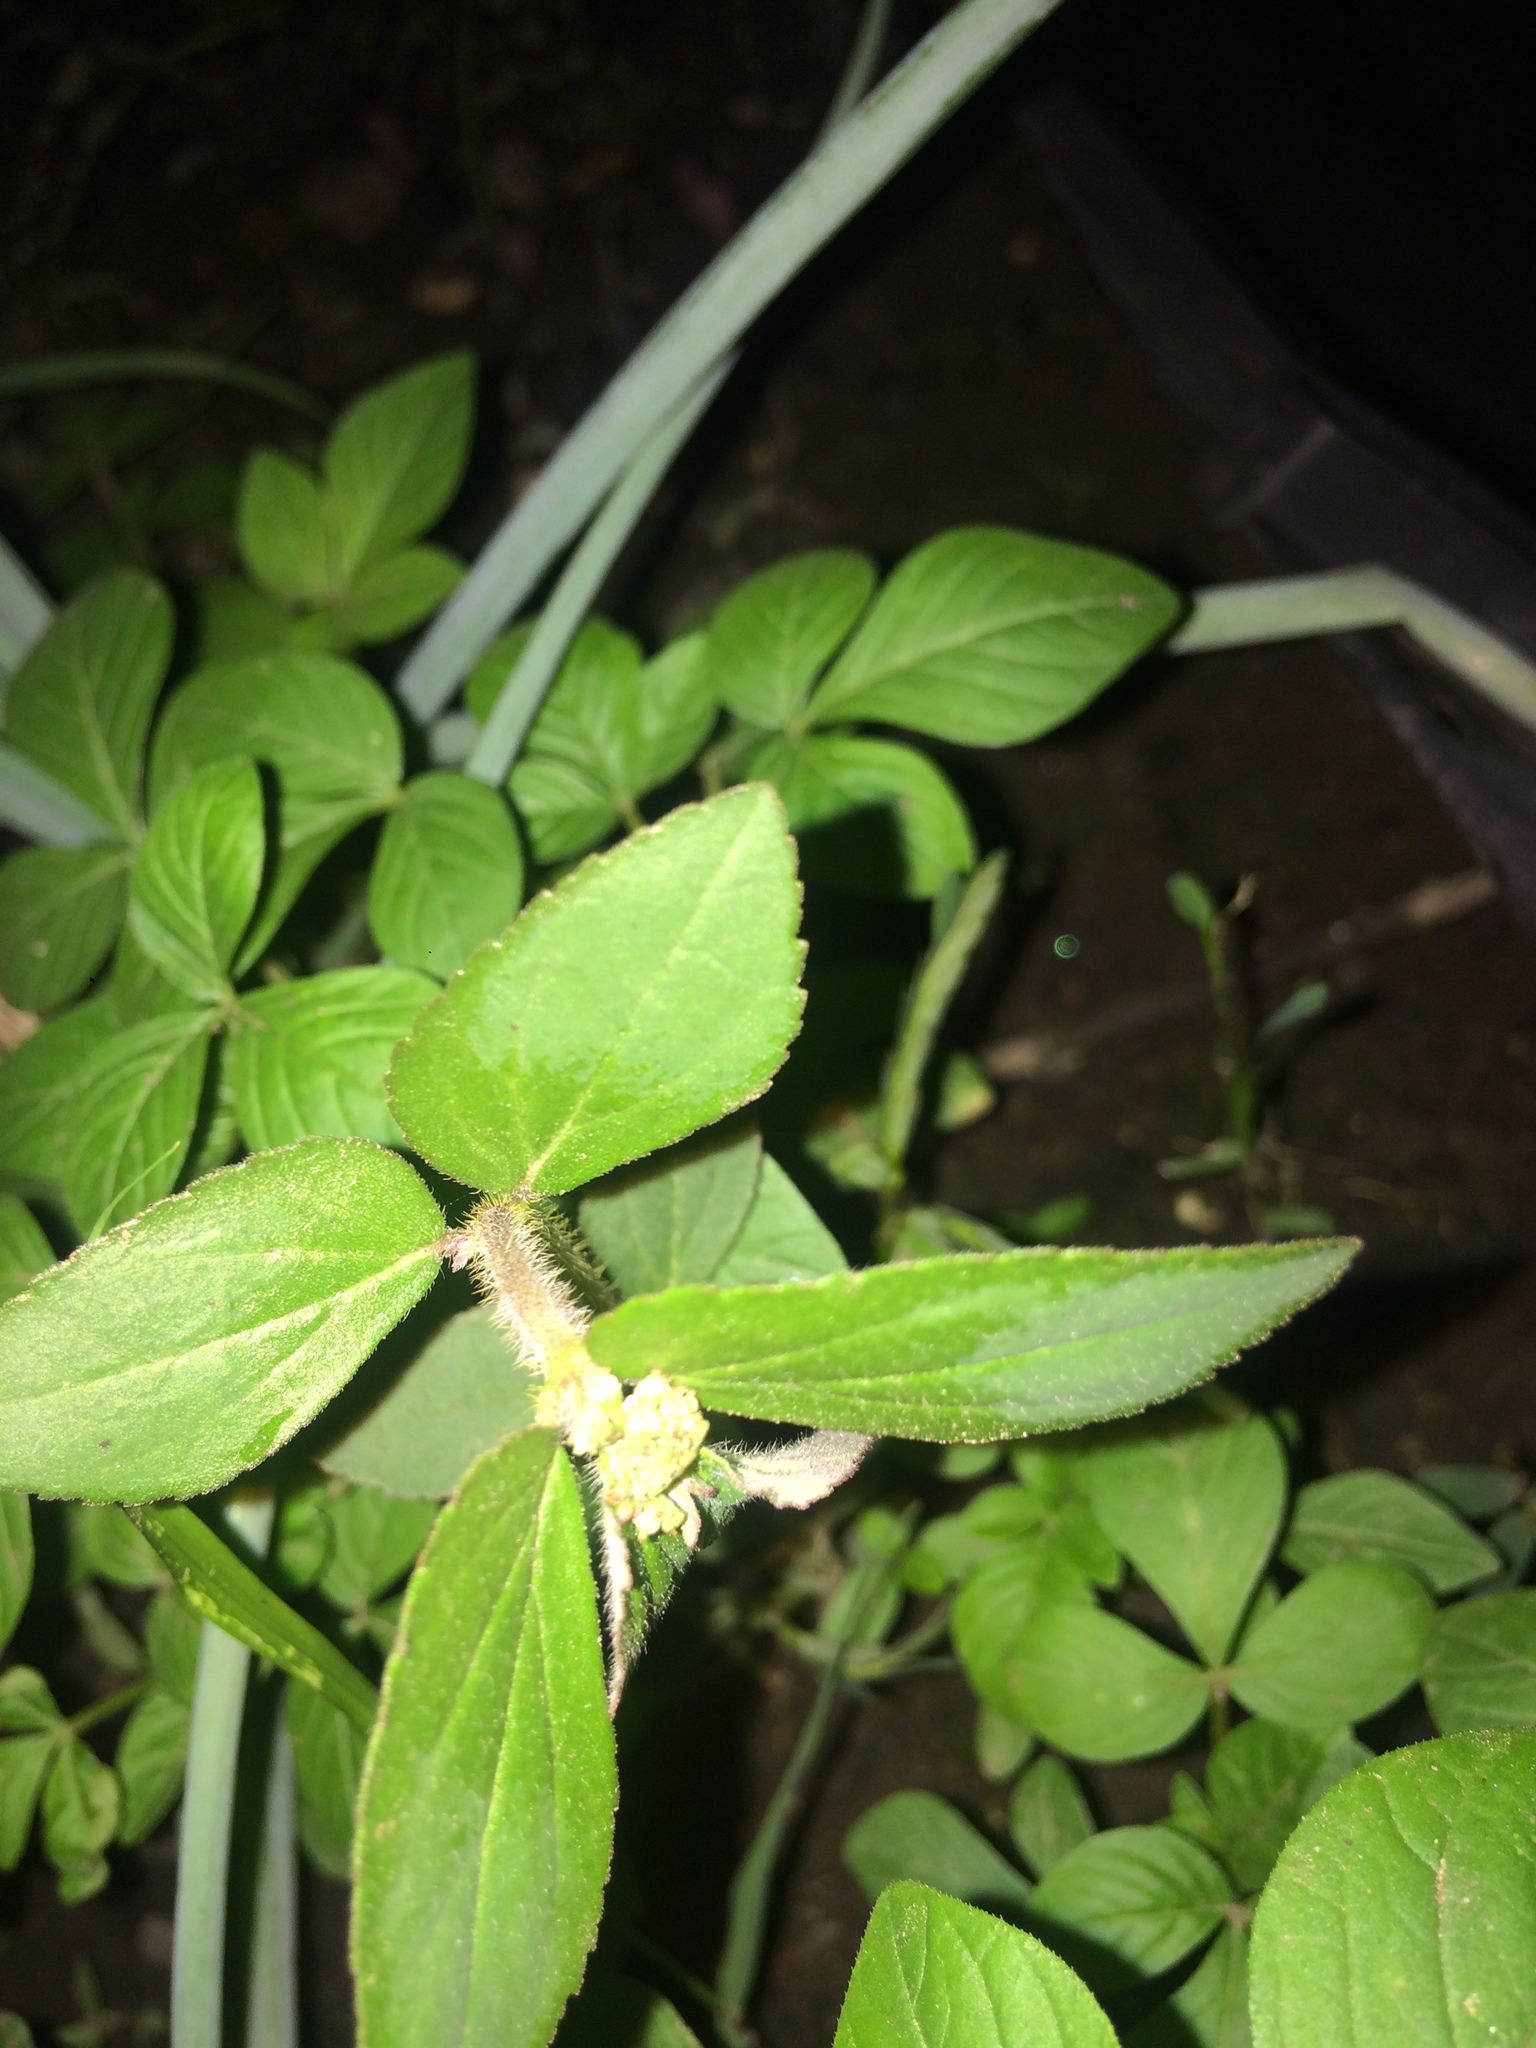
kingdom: Plantae
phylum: Tracheophyta
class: Magnoliopsida
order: Malpighiales
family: Euphorbiaceae
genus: Euphorbia
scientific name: Euphorbia hirta
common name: Pillpod sandmat
